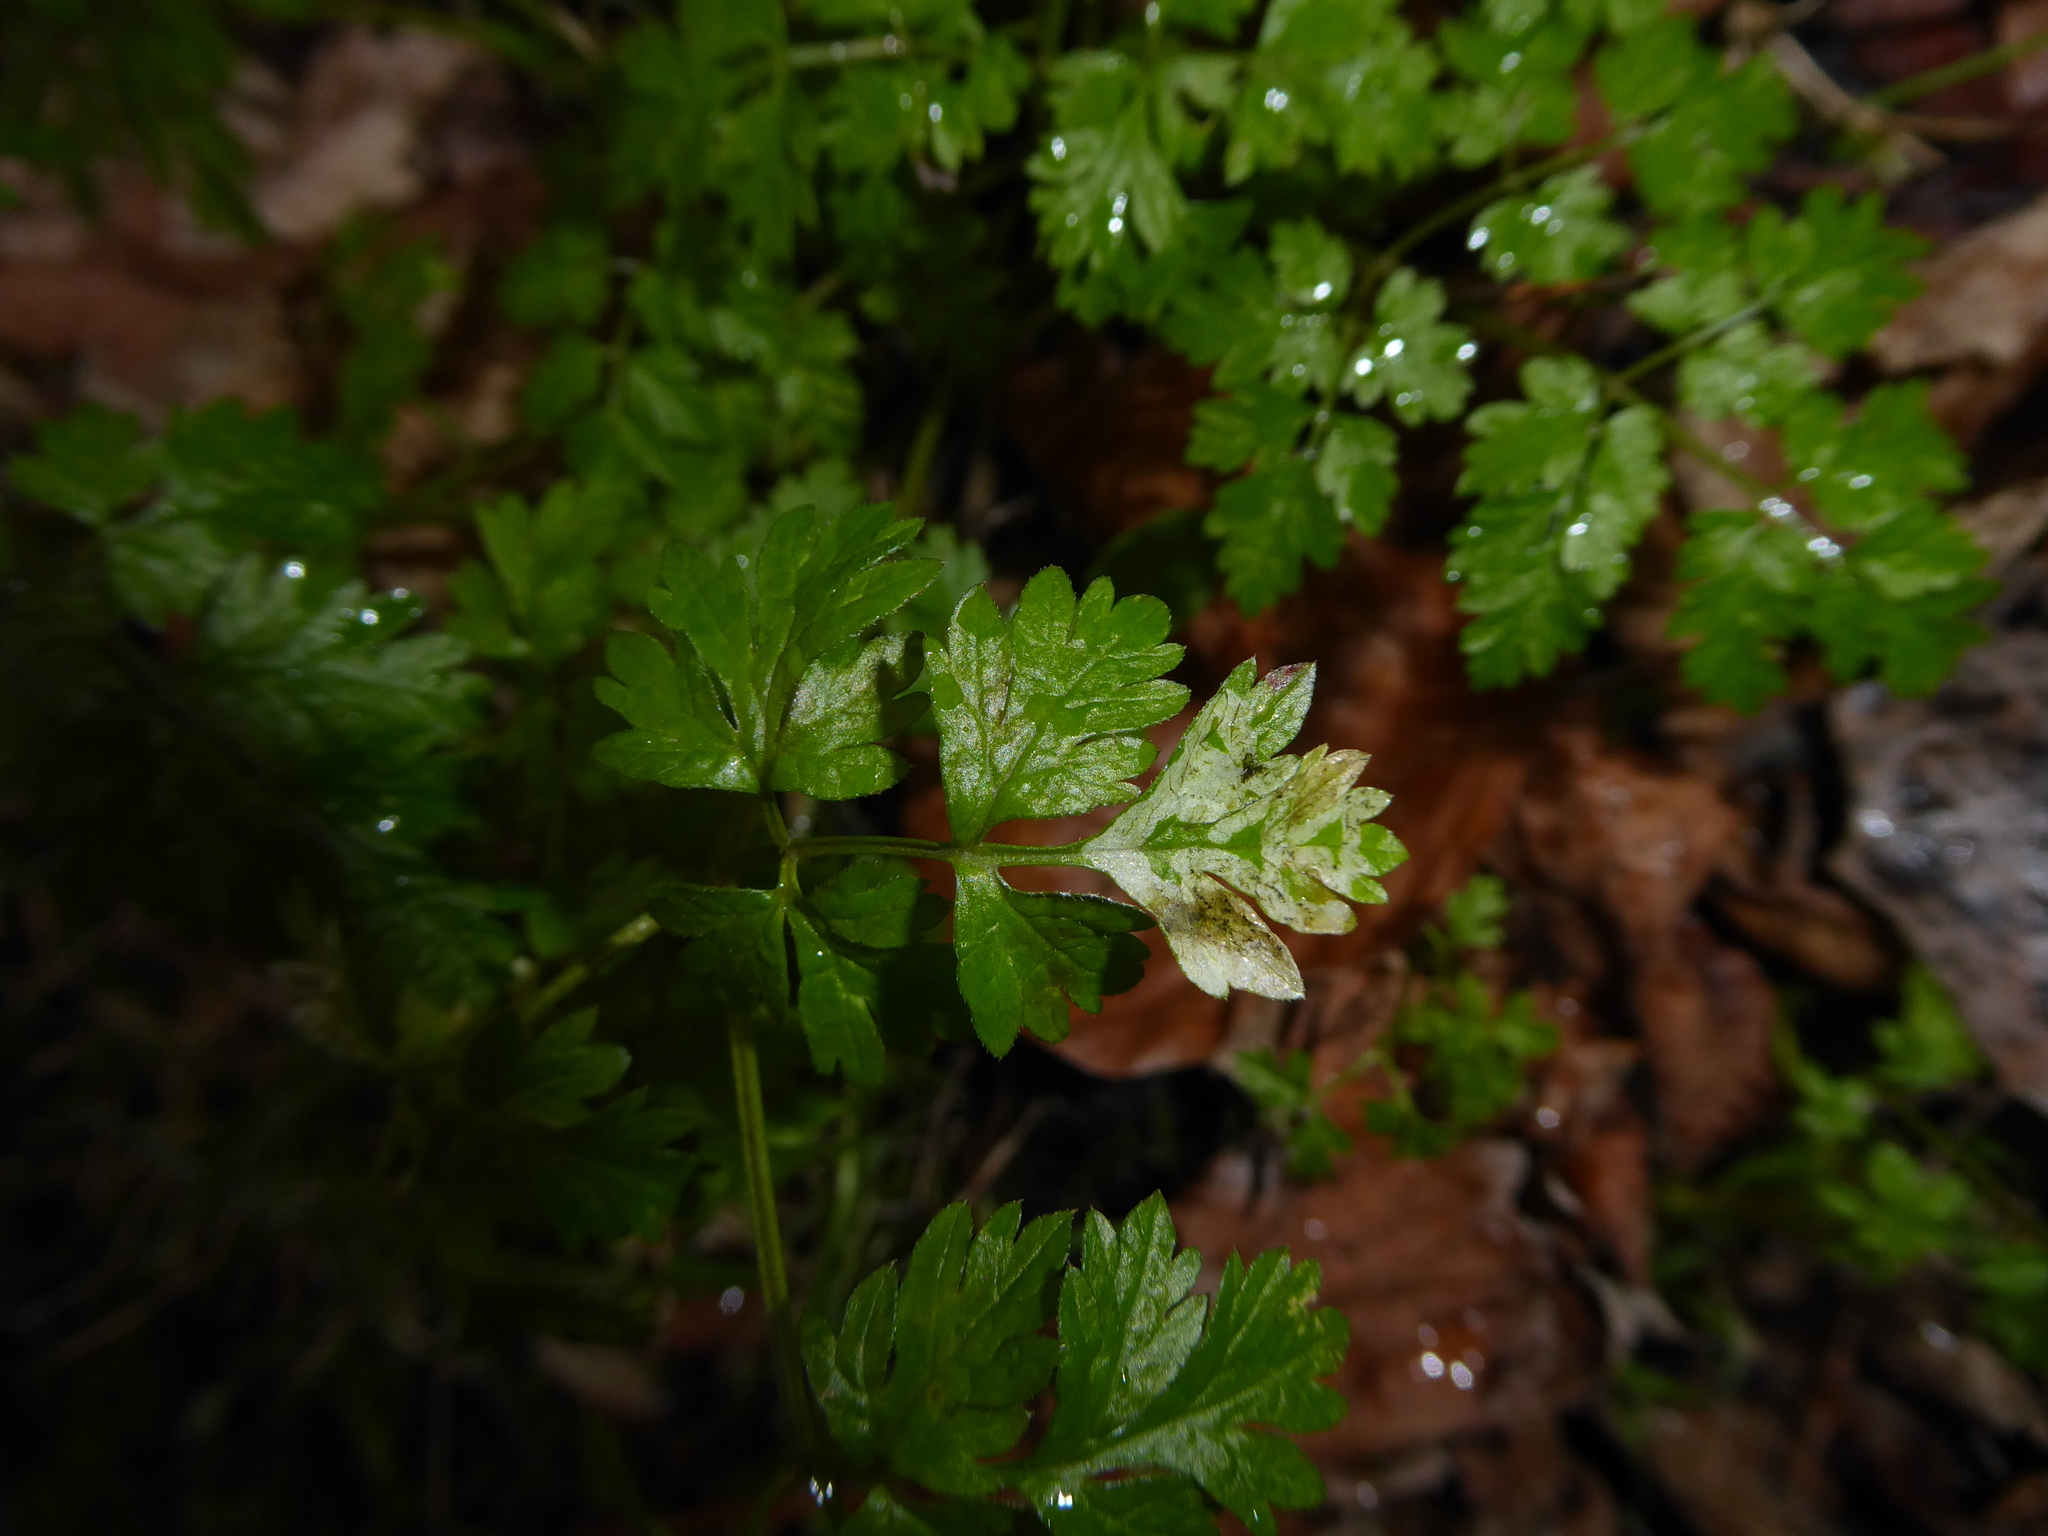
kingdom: Animalia
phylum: Arthropoda
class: Insecta
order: Diptera
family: Agromyzidae
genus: Phytomyza
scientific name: Phytomyza chaerophylli
